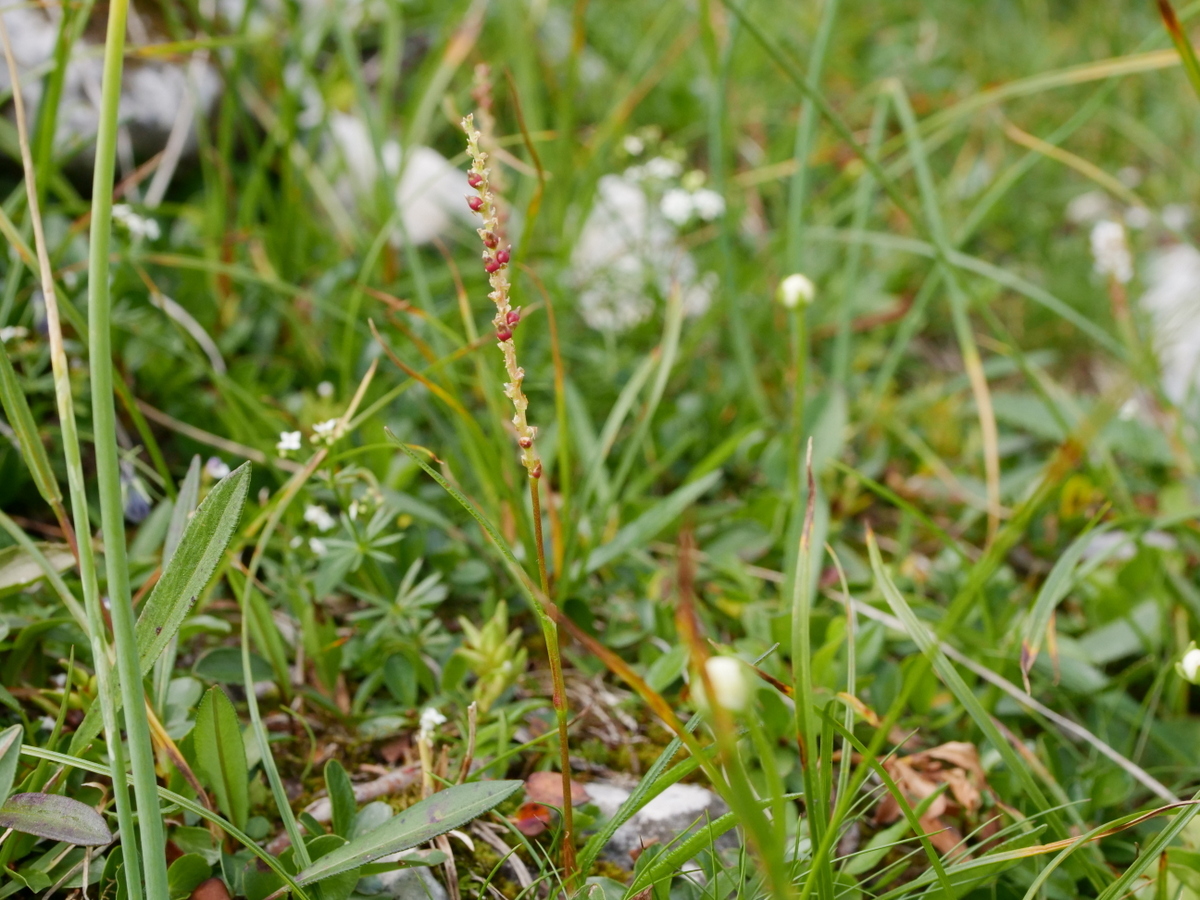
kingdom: Plantae
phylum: Tracheophyta
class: Magnoliopsida
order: Caryophyllales
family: Polygonaceae
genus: Bistorta
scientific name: Bistorta vivipara
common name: Alpine bistort
